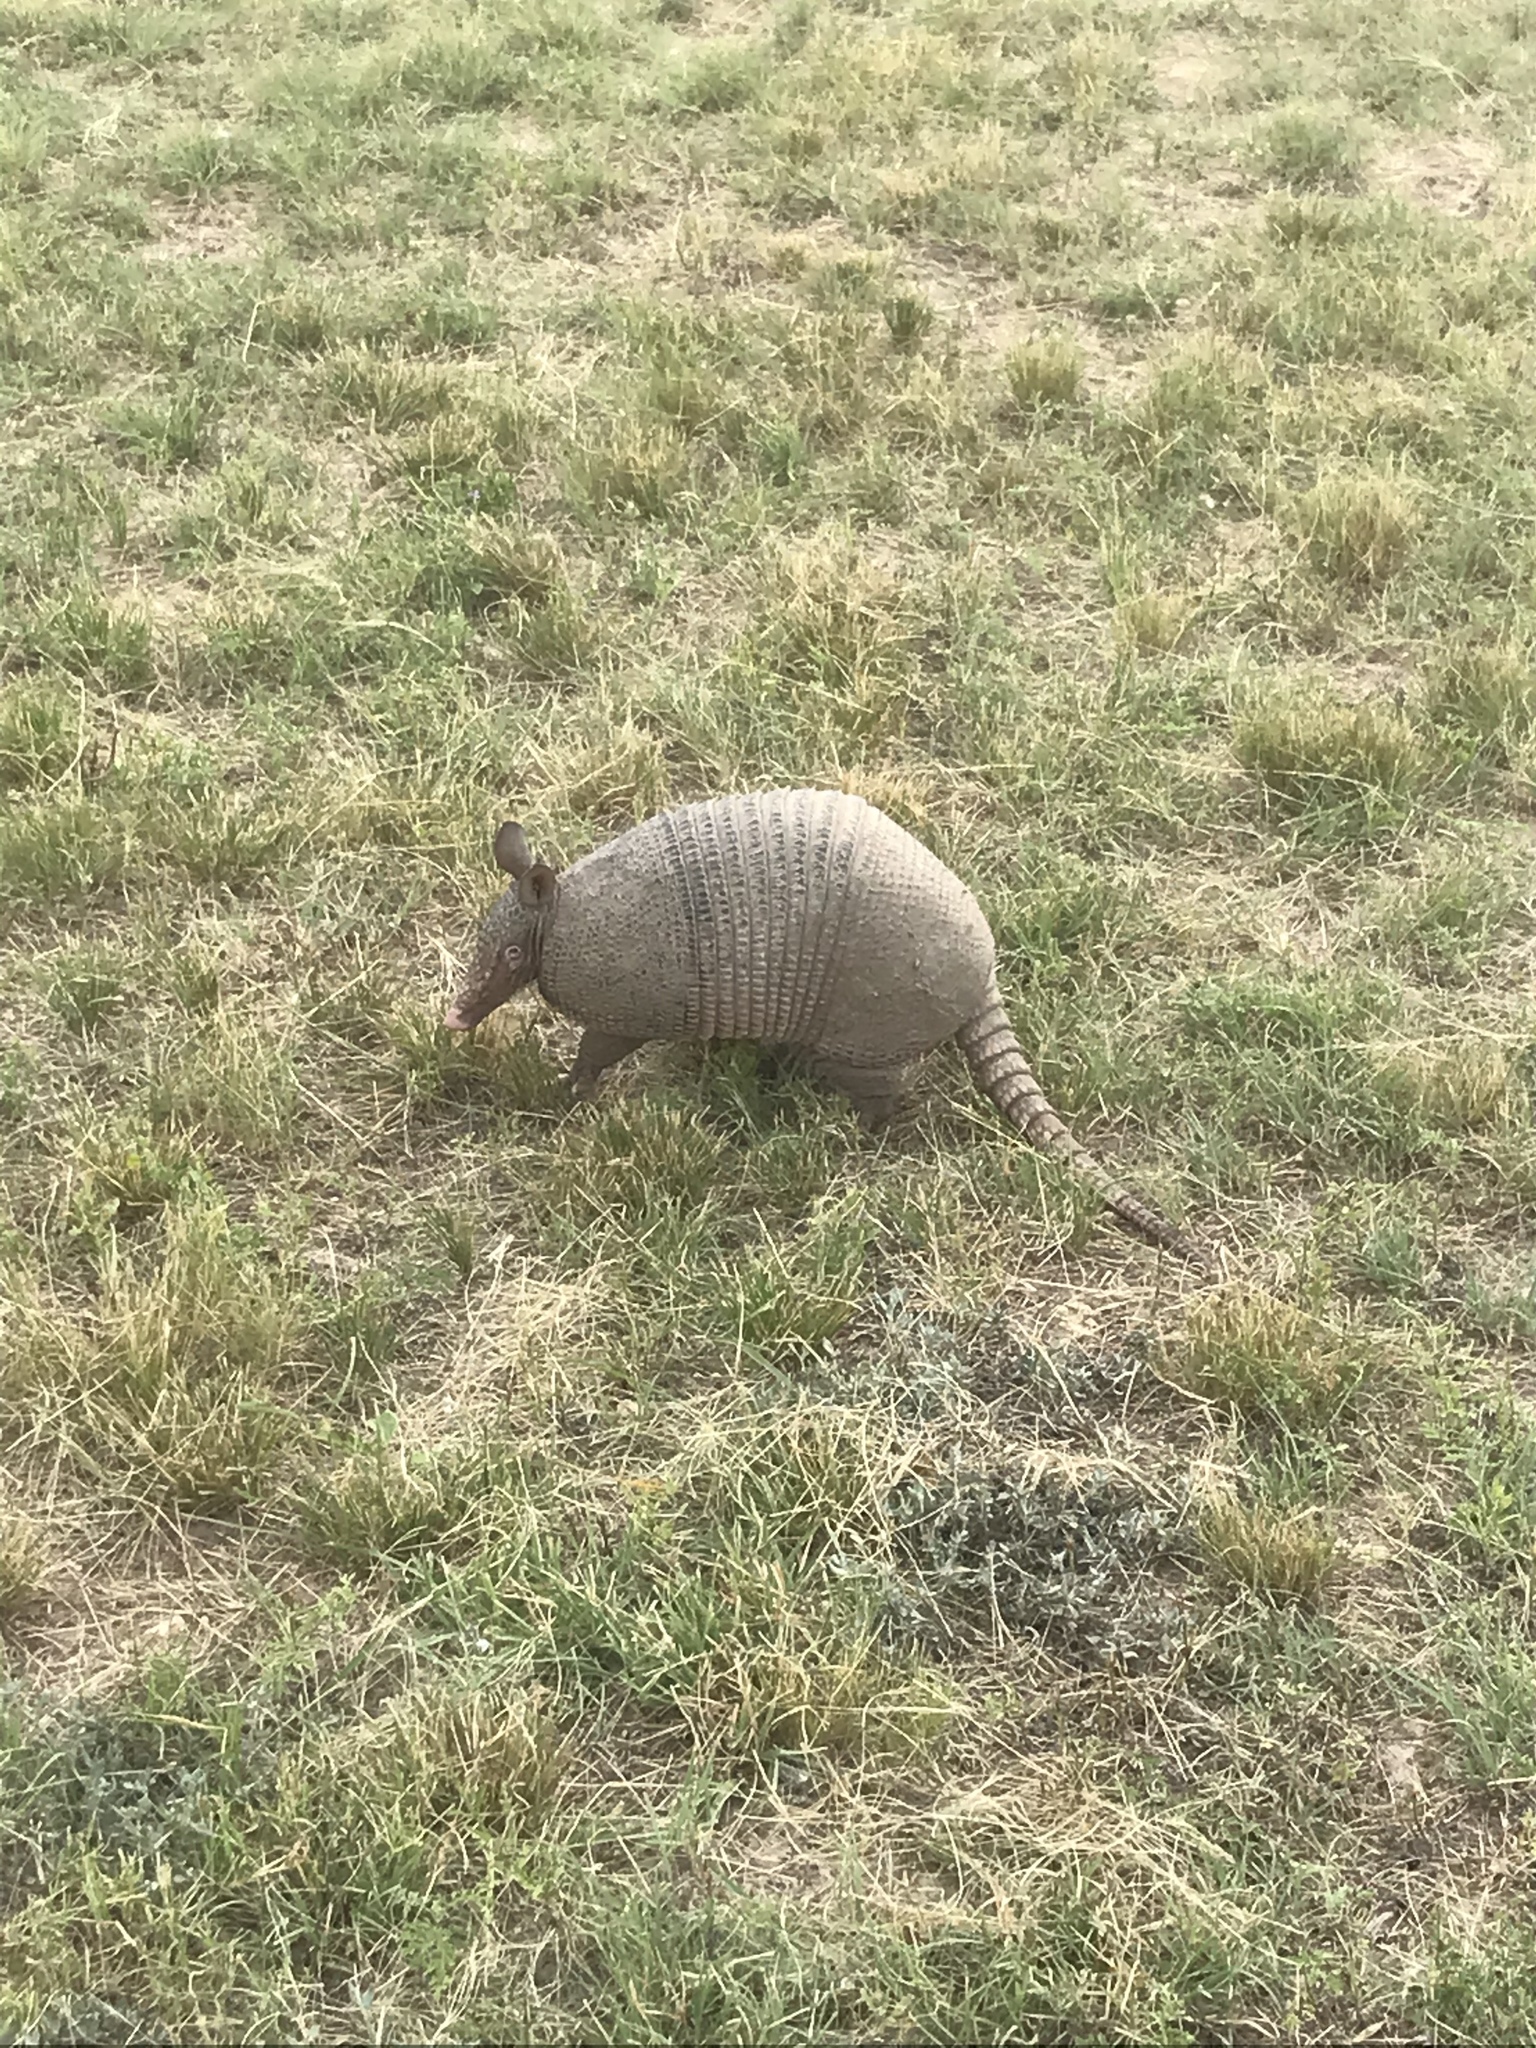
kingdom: Animalia
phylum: Chordata
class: Mammalia
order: Cingulata
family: Dasypodidae
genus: Dasypus
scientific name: Dasypus novemcinctus
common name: Nine-banded armadillo
